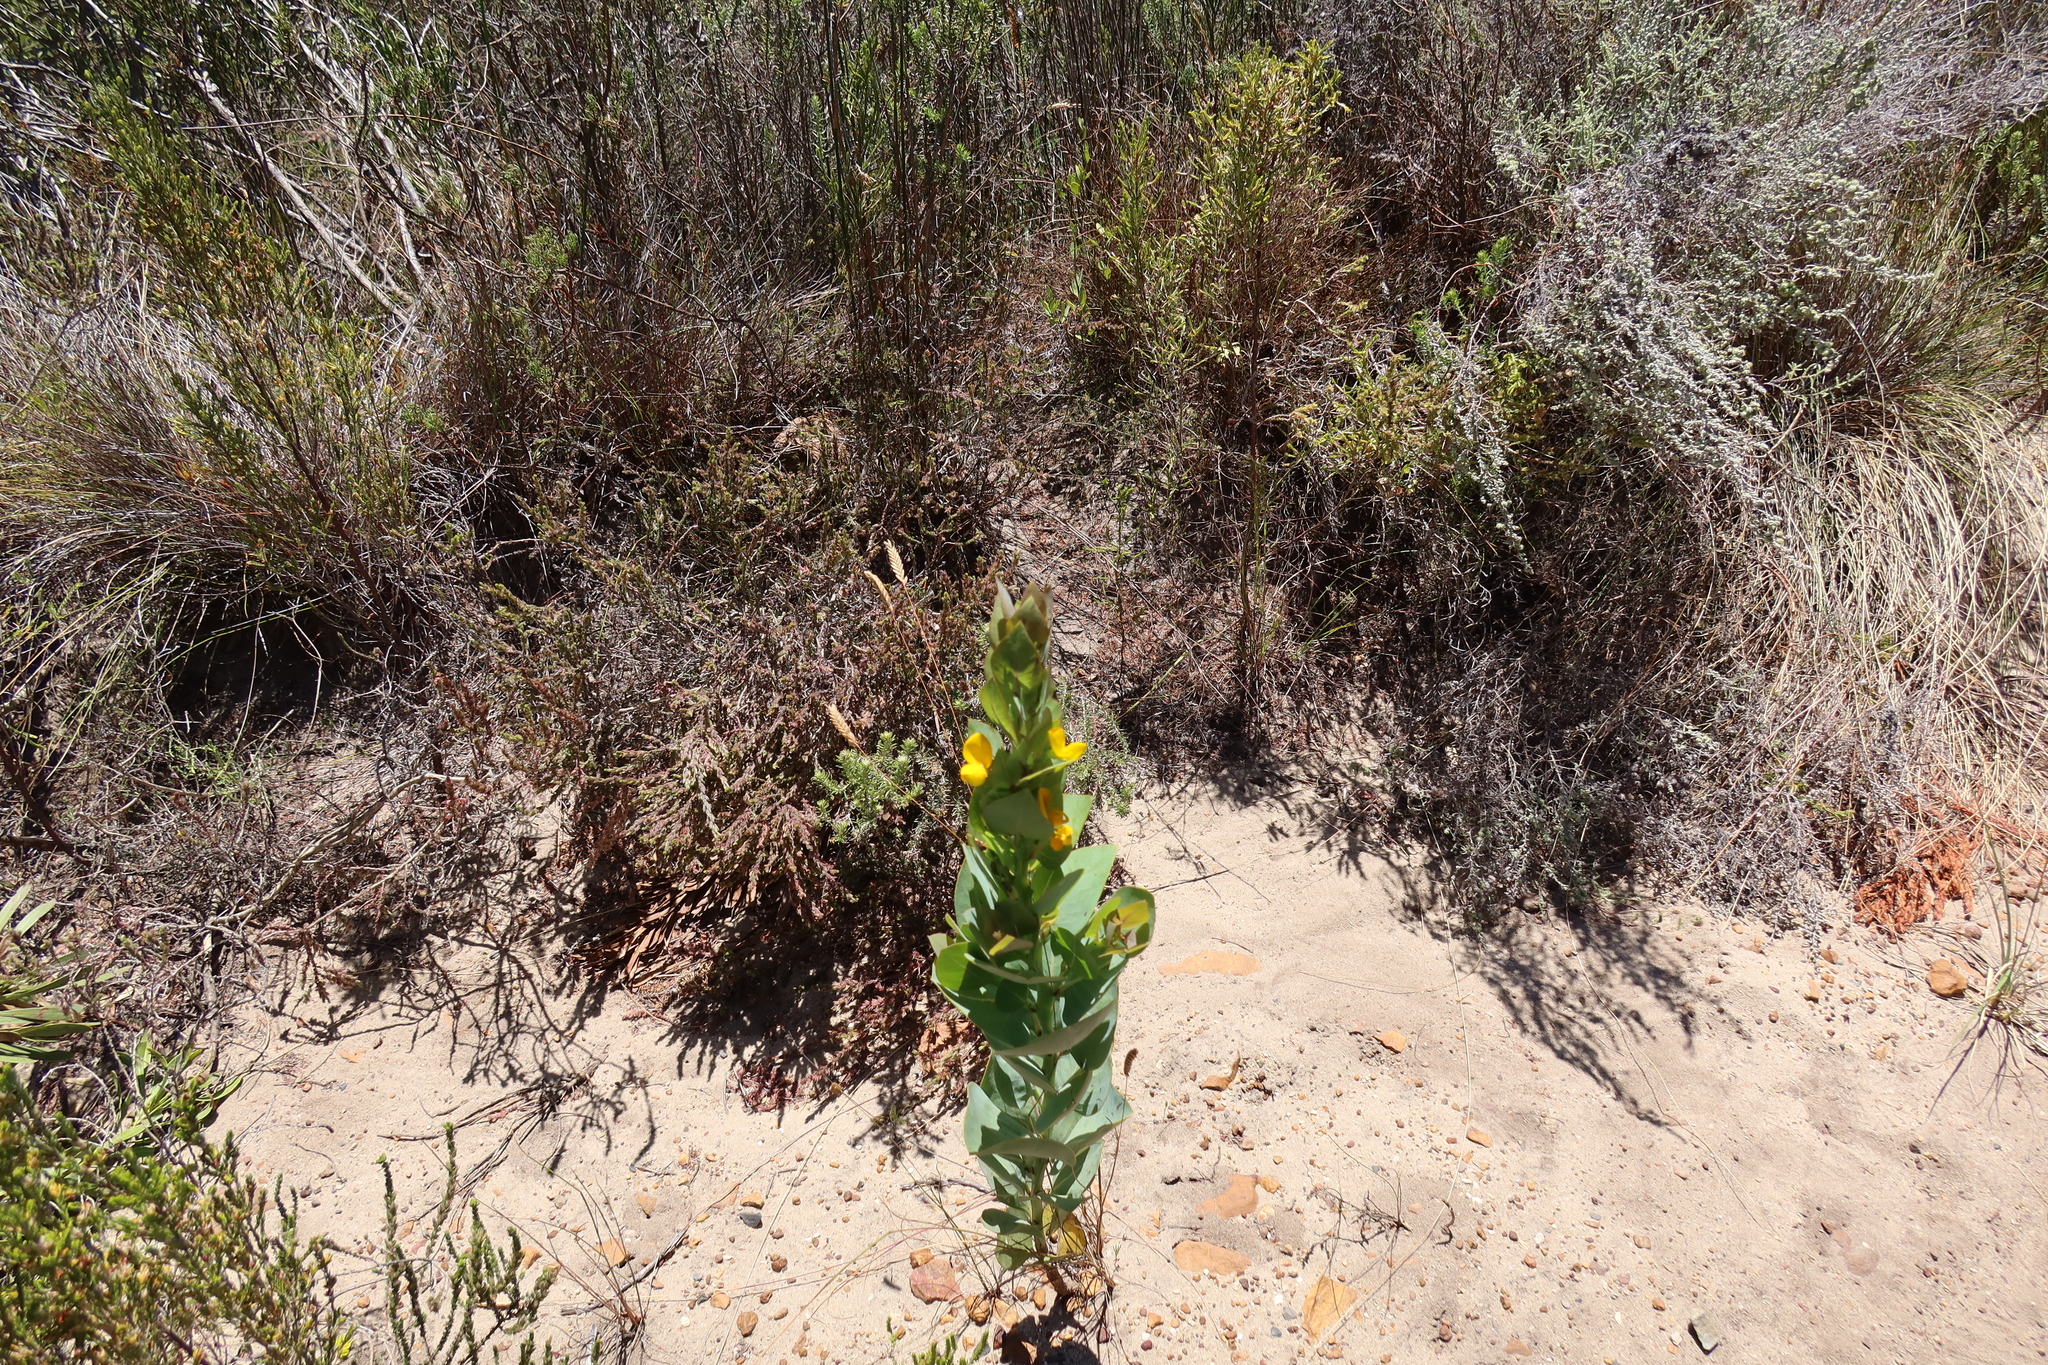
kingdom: Plantae
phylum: Tracheophyta
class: Magnoliopsida
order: Fabales
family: Fabaceae
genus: Rafnia
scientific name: Rafnia triflora
